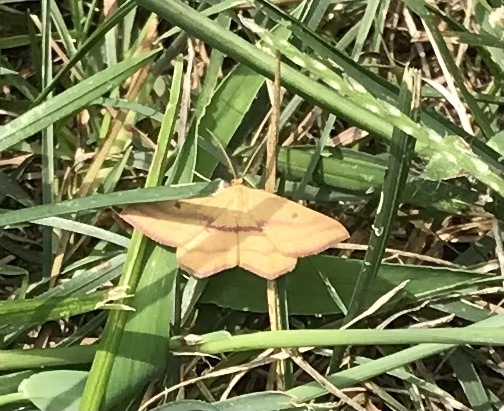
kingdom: Animalia
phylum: Arthropoda
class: Insecta
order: Lepidoptera
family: Geometridae
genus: Haematopis
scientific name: Haematopis grataria
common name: Chickweed geometer
